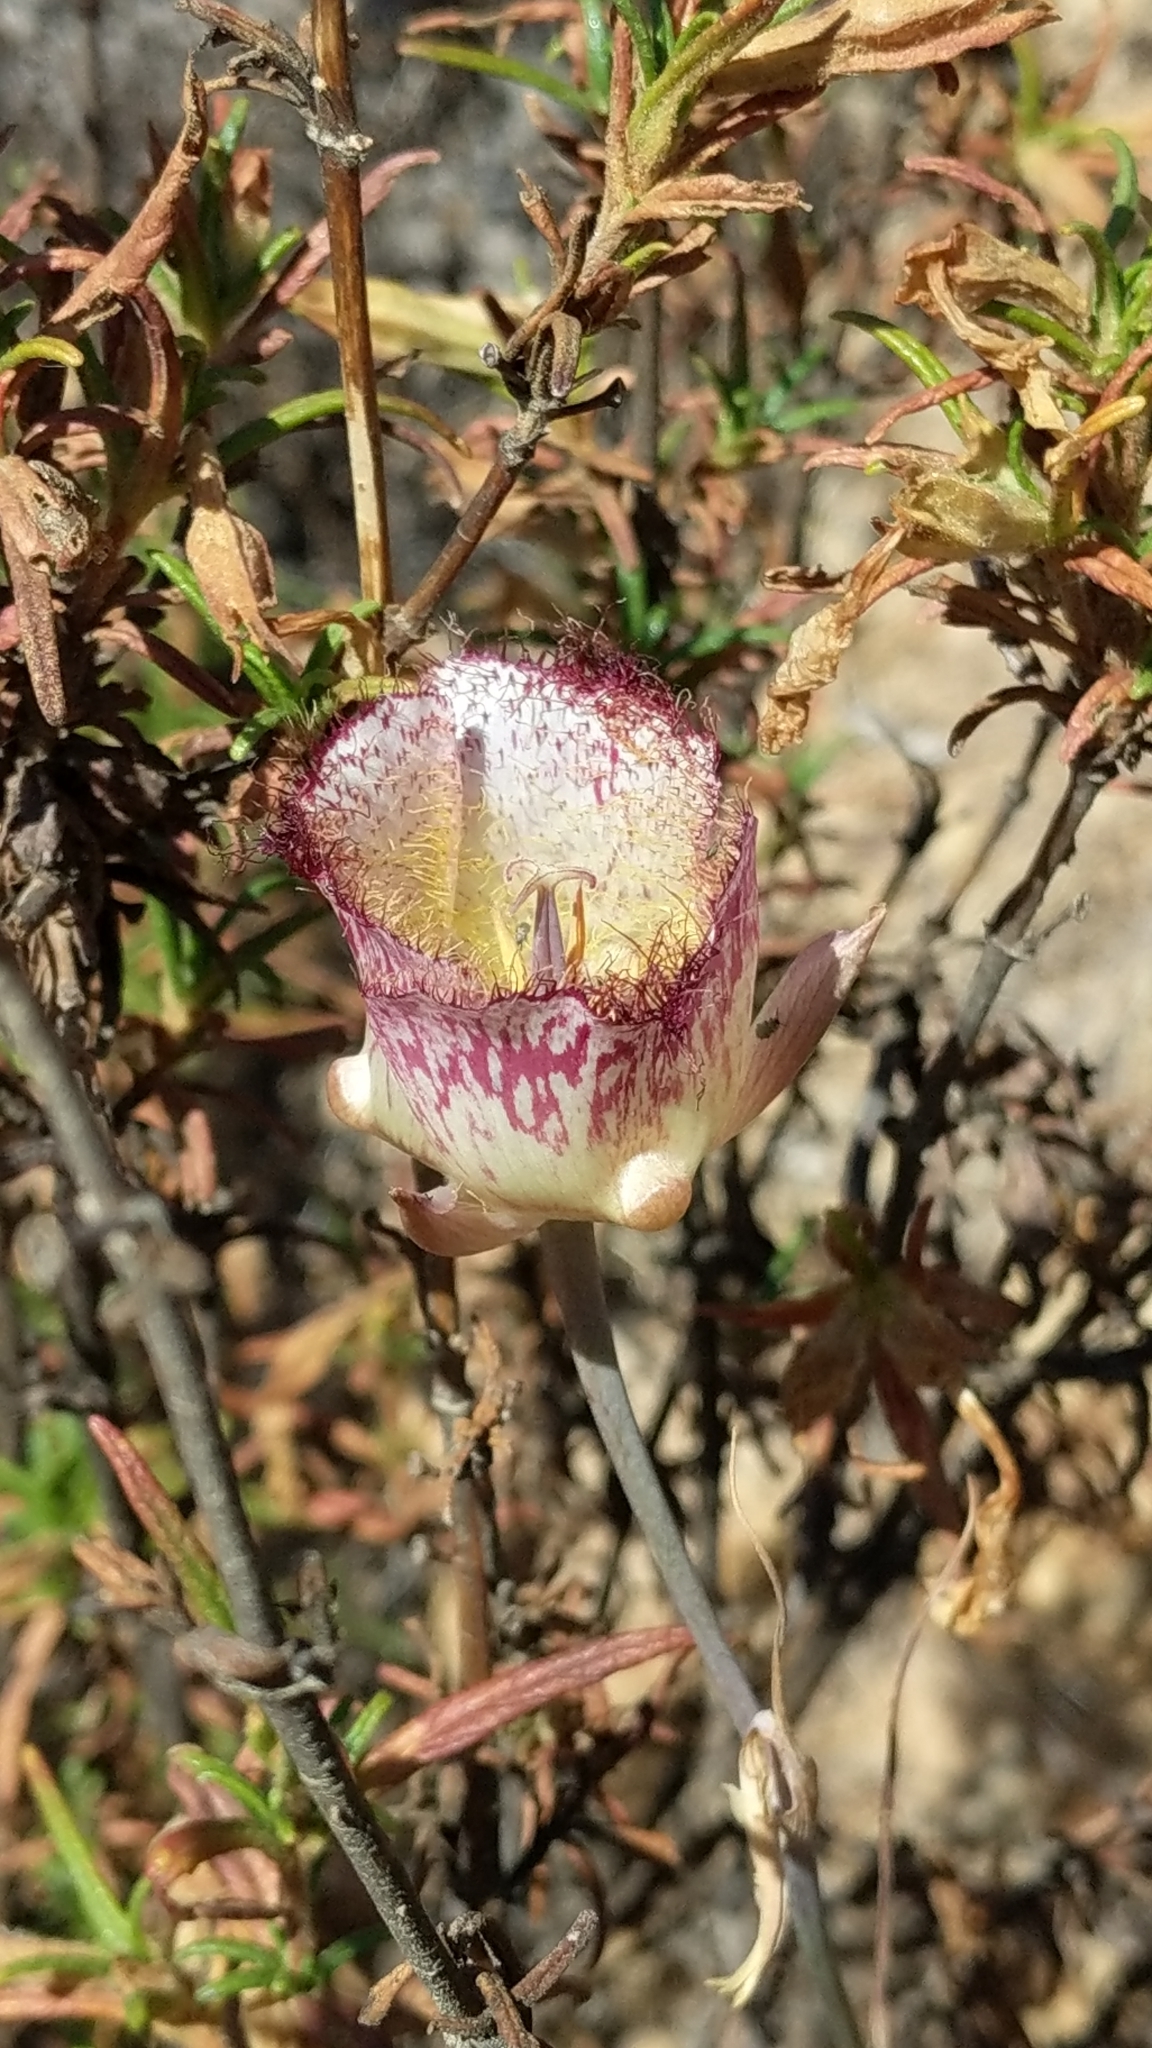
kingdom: Plantae
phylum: Tracheophyta
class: Liliopsida
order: Liliales
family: Liliaceae
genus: Calochortus
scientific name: Calochortus fimbriatus
